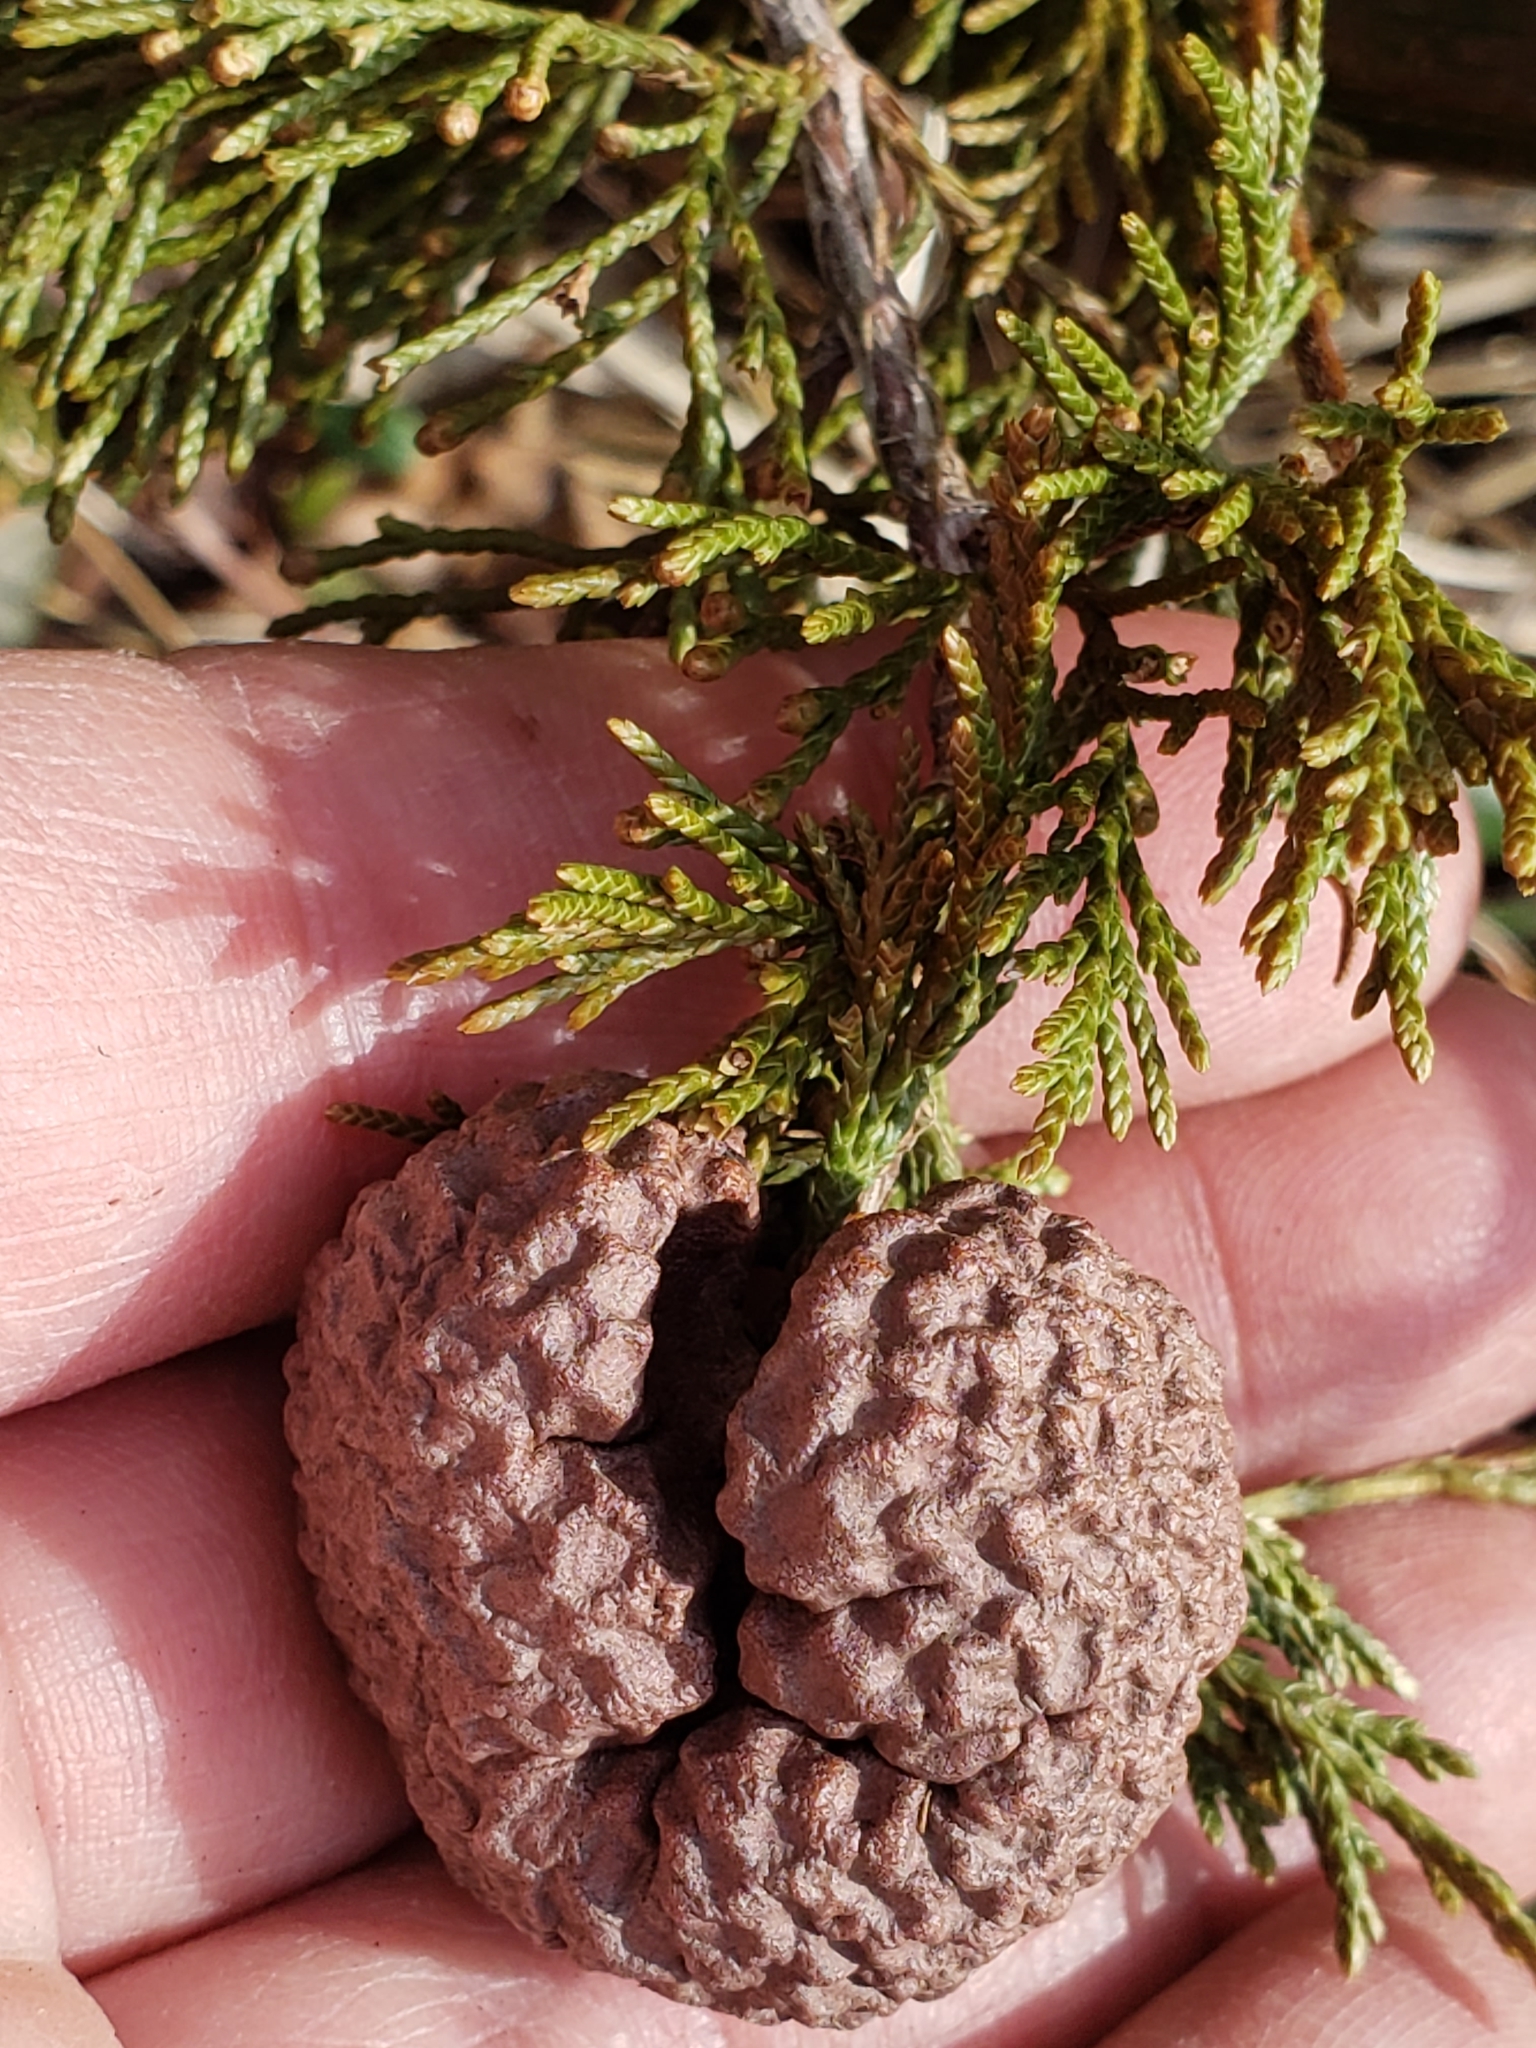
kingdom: Fungi
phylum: Basidiomycota
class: Pucciniomycetes
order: Pucciniales
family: Gymnosporangiaceae
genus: Gymnosporangium
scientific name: Gymnosporangium juniperi-virginianae
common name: Juniper-apple rust
